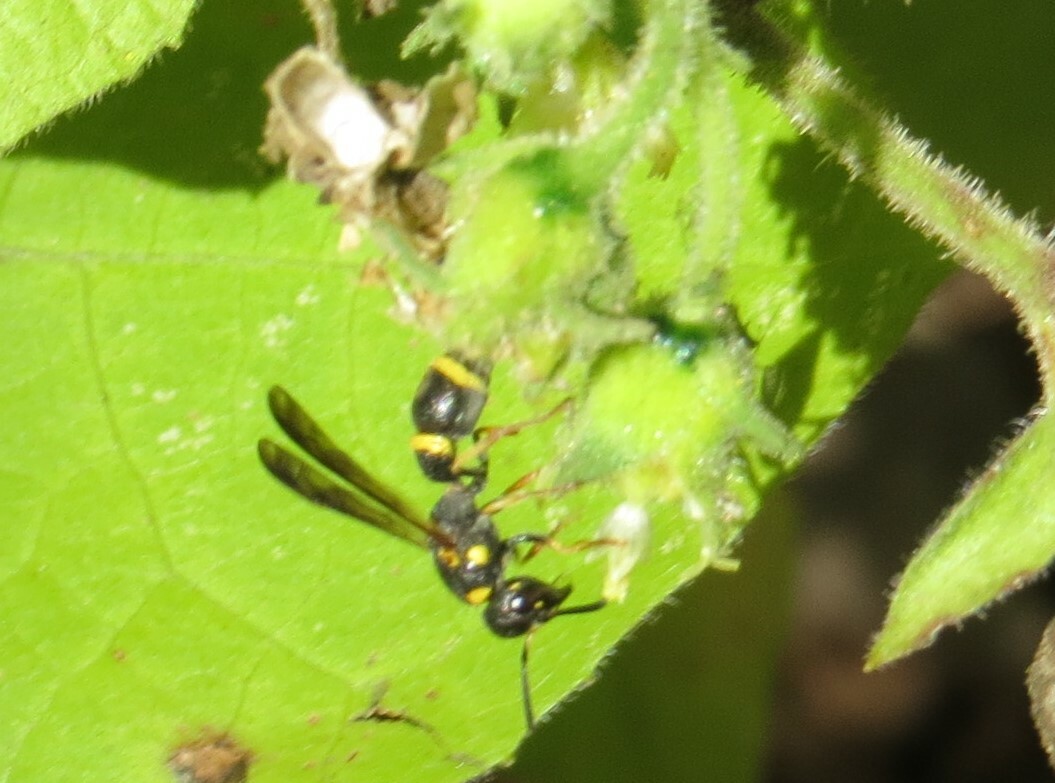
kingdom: Animalia
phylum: Arthropoda
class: Insecta
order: Hymenoptera
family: Eumenidae
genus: Parancistrocerus
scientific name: Parancistrocerus perennis
